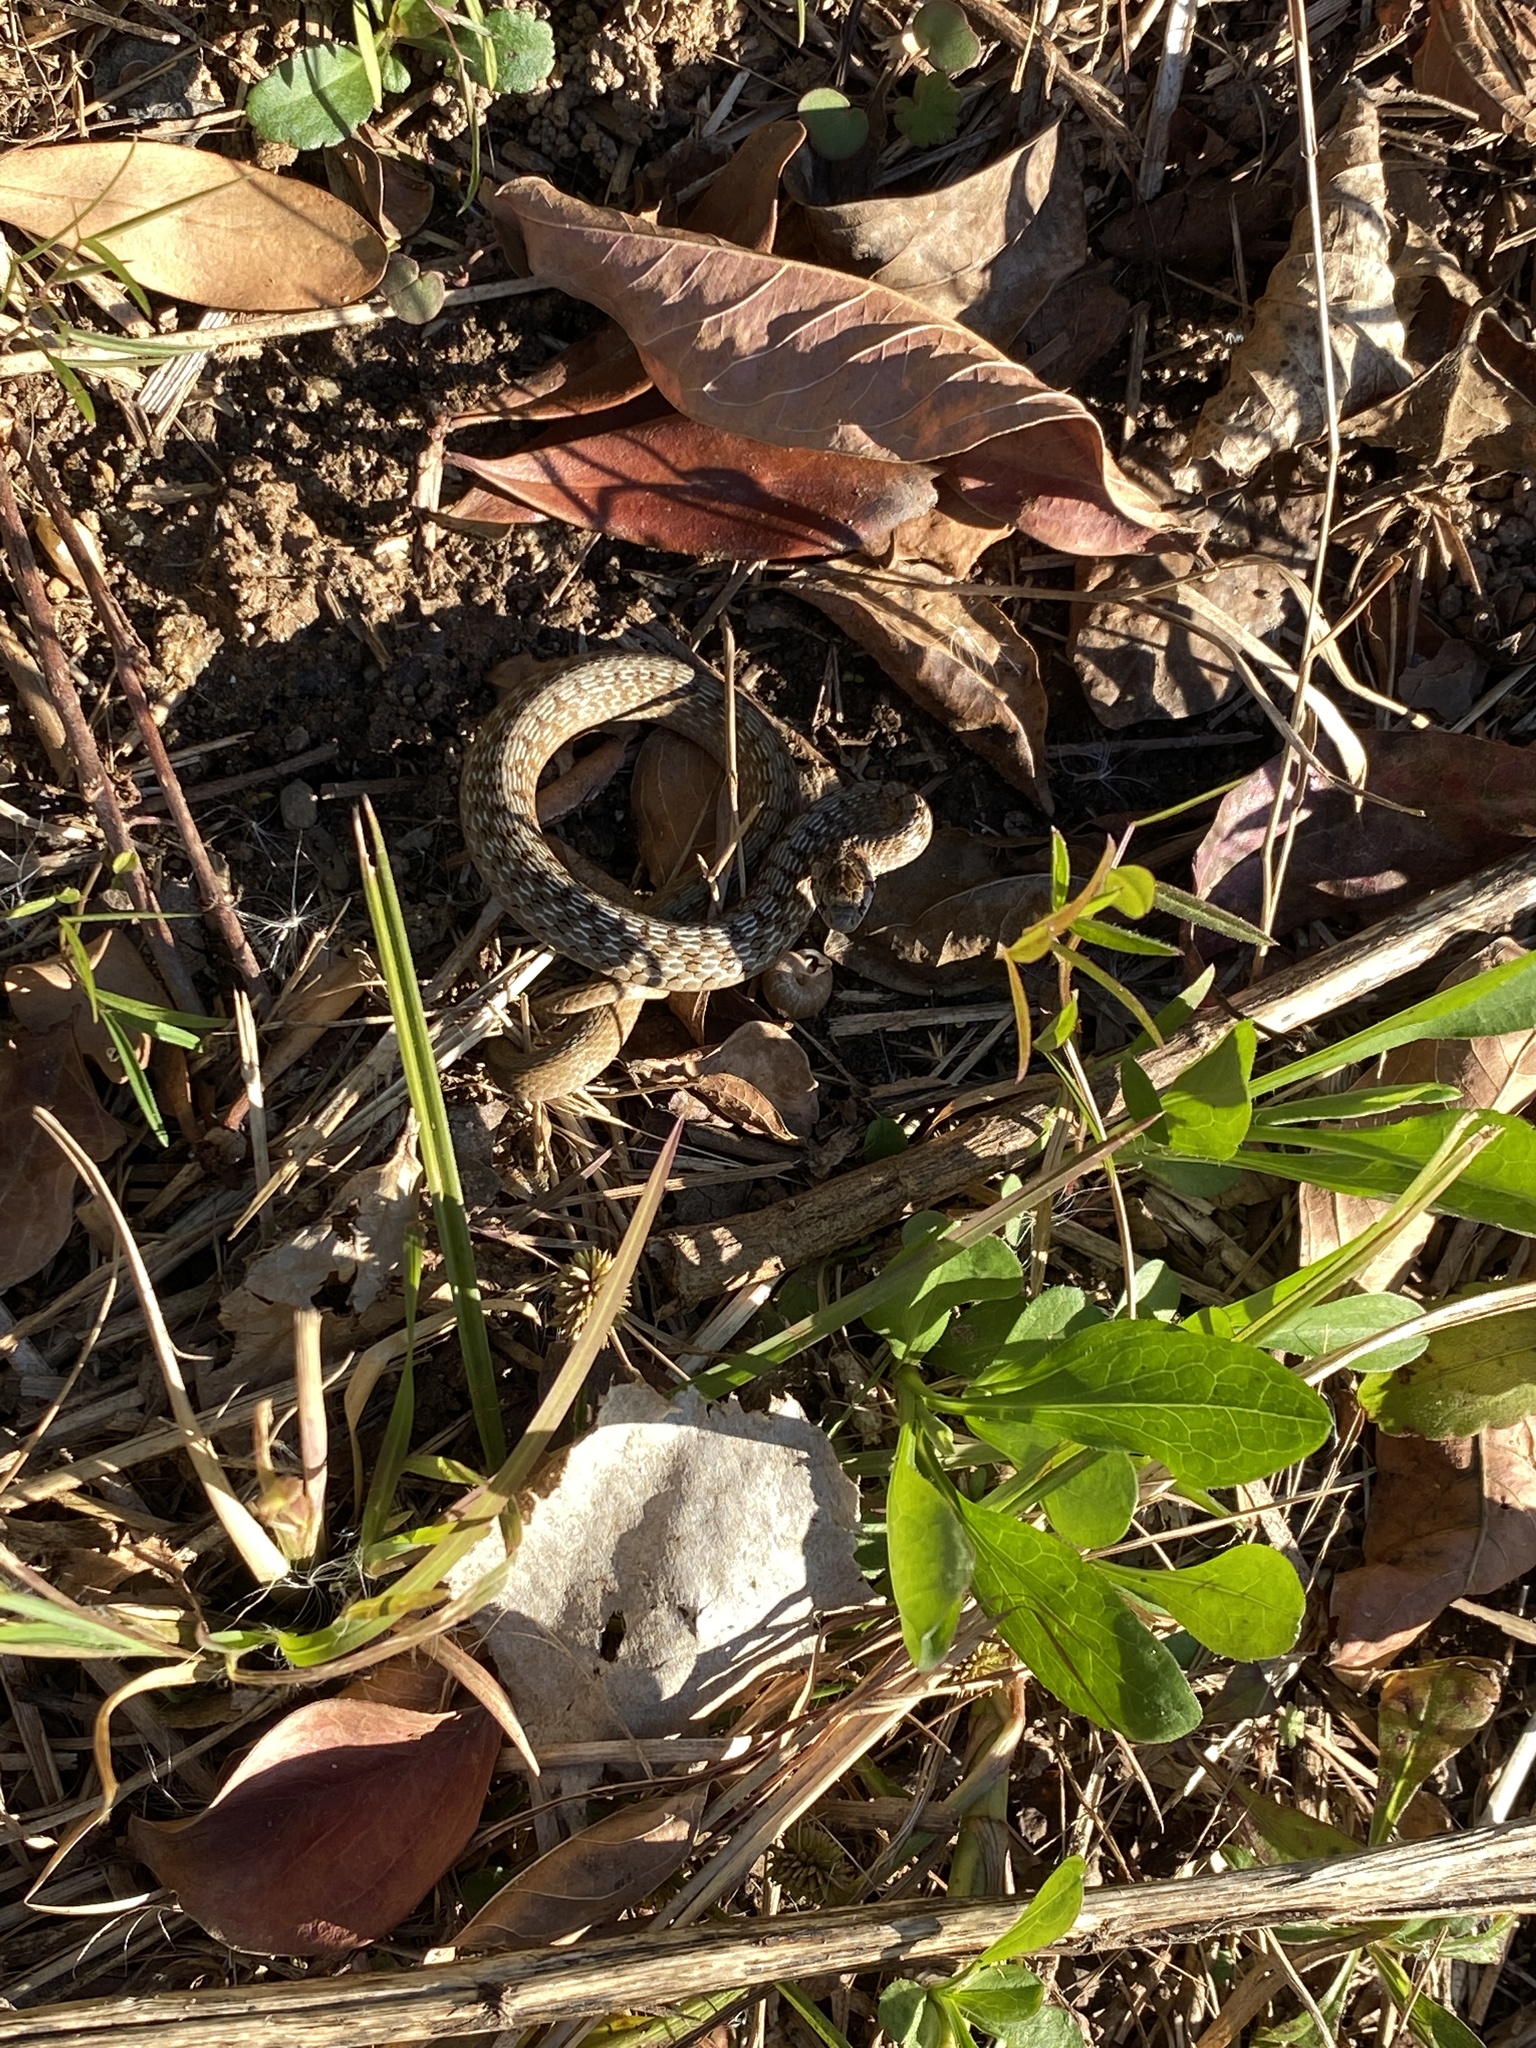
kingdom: Animalia
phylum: Chordata
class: Squamata
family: Colubridae
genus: Storeria
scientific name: Storeria dekayi
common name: (dekay’s) brown snake
